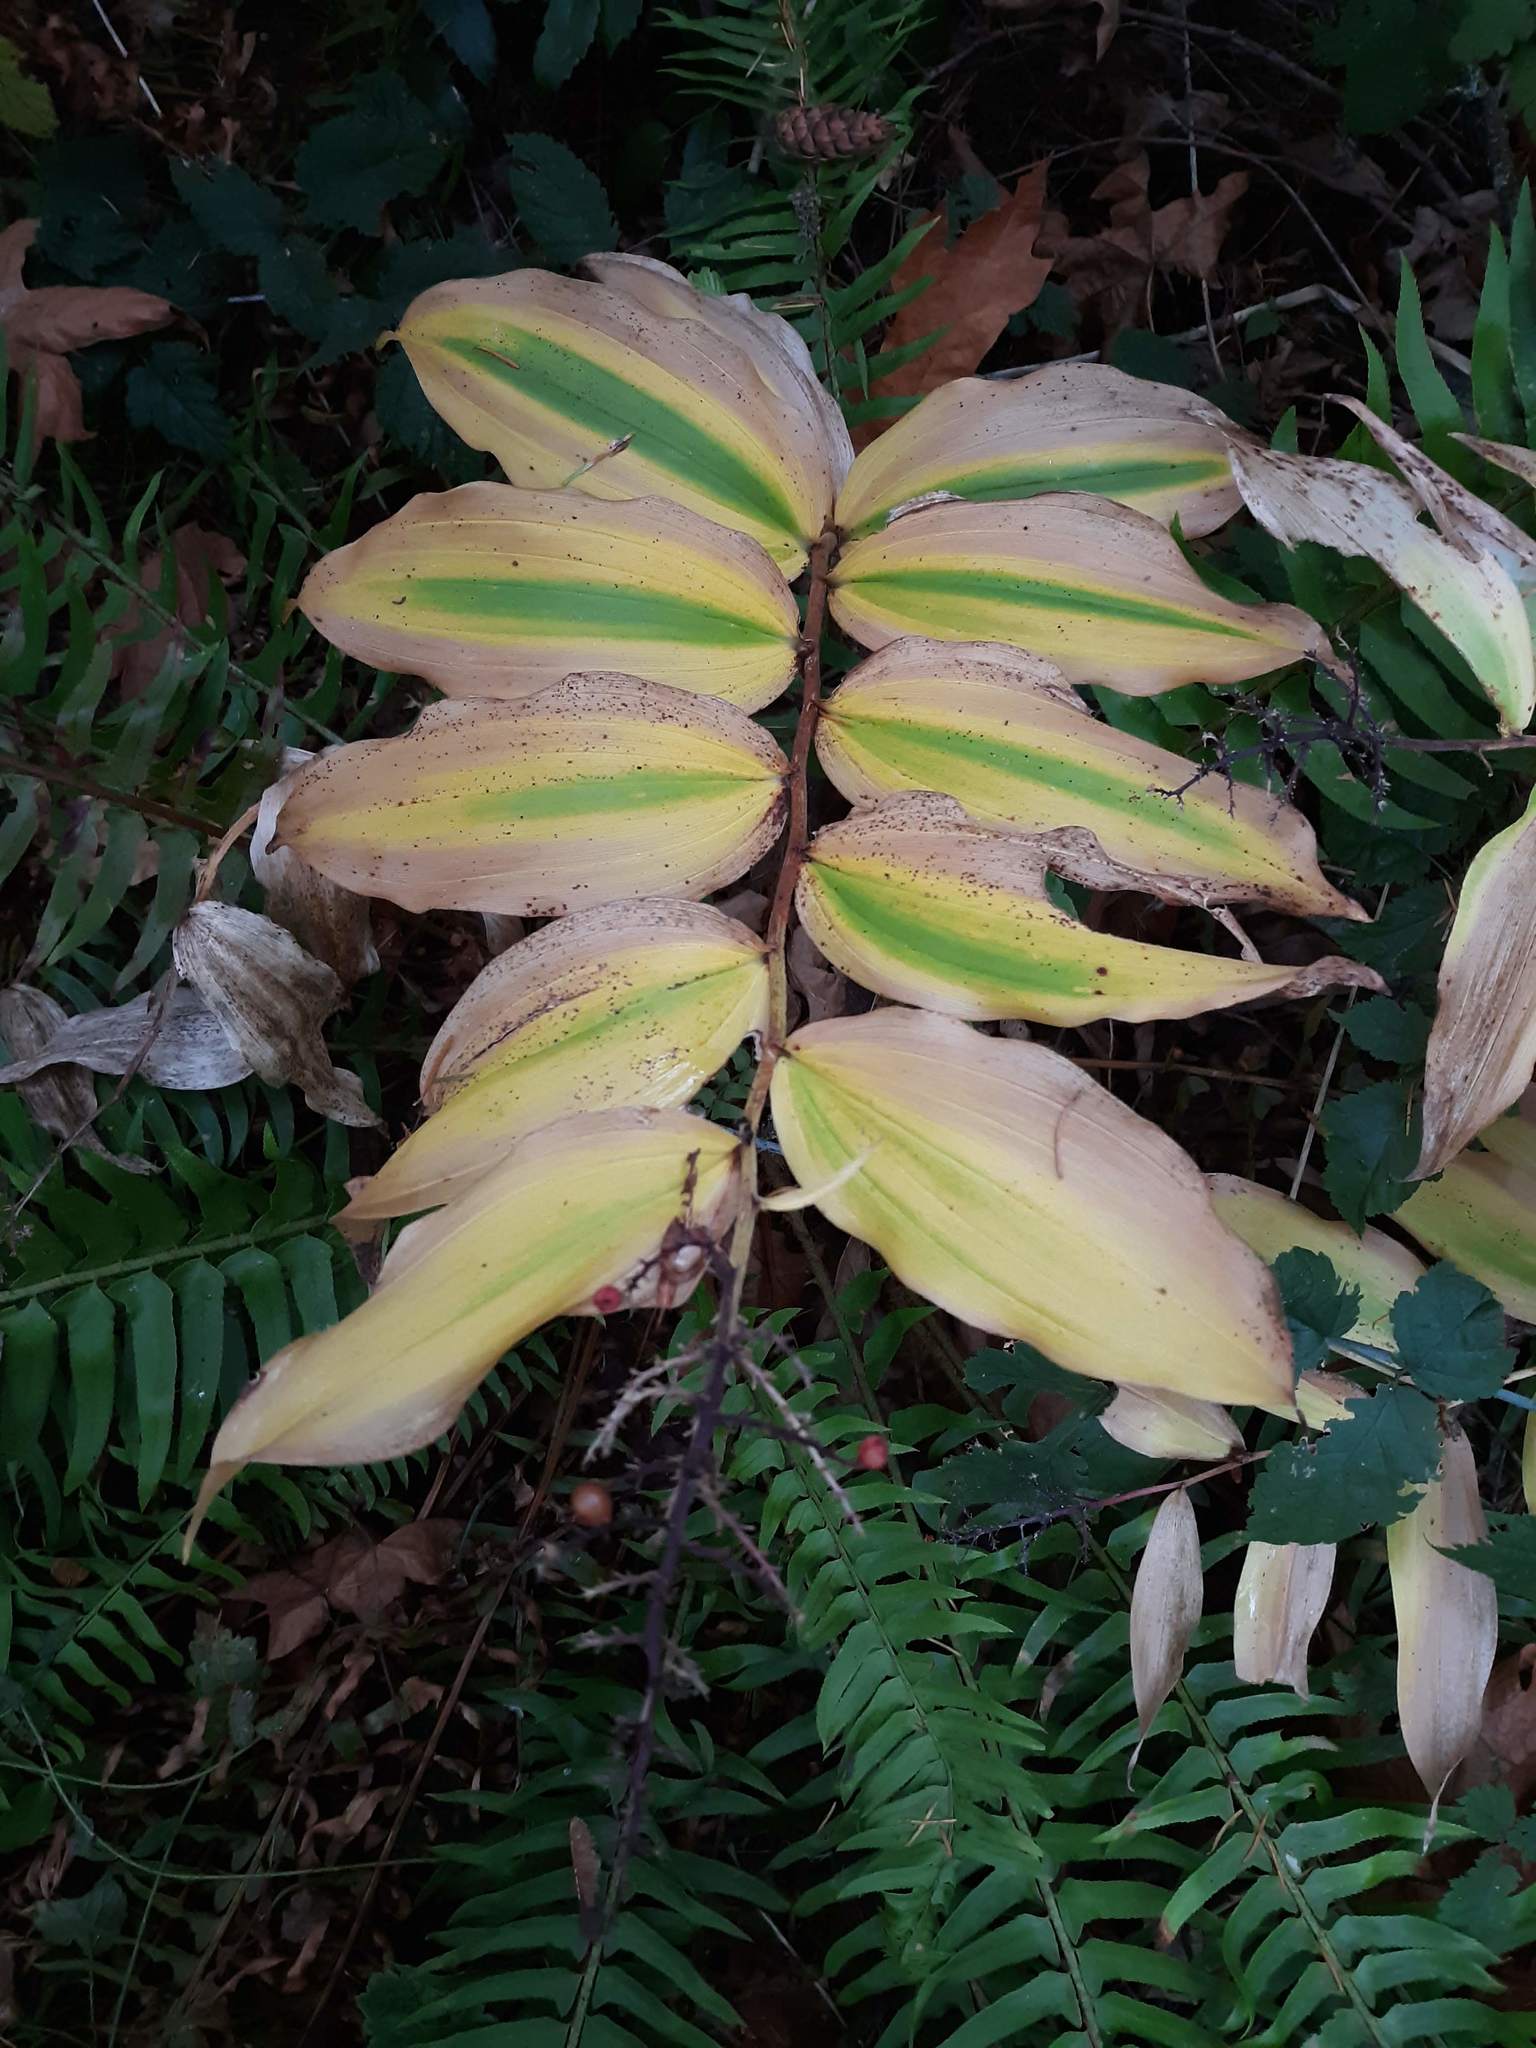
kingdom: Plantae
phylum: Tracheophyta
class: Liliopsida
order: Asparagales
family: Asparagaceae
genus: Maianthemum
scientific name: Maianthemum racemosum
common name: False spikenard
